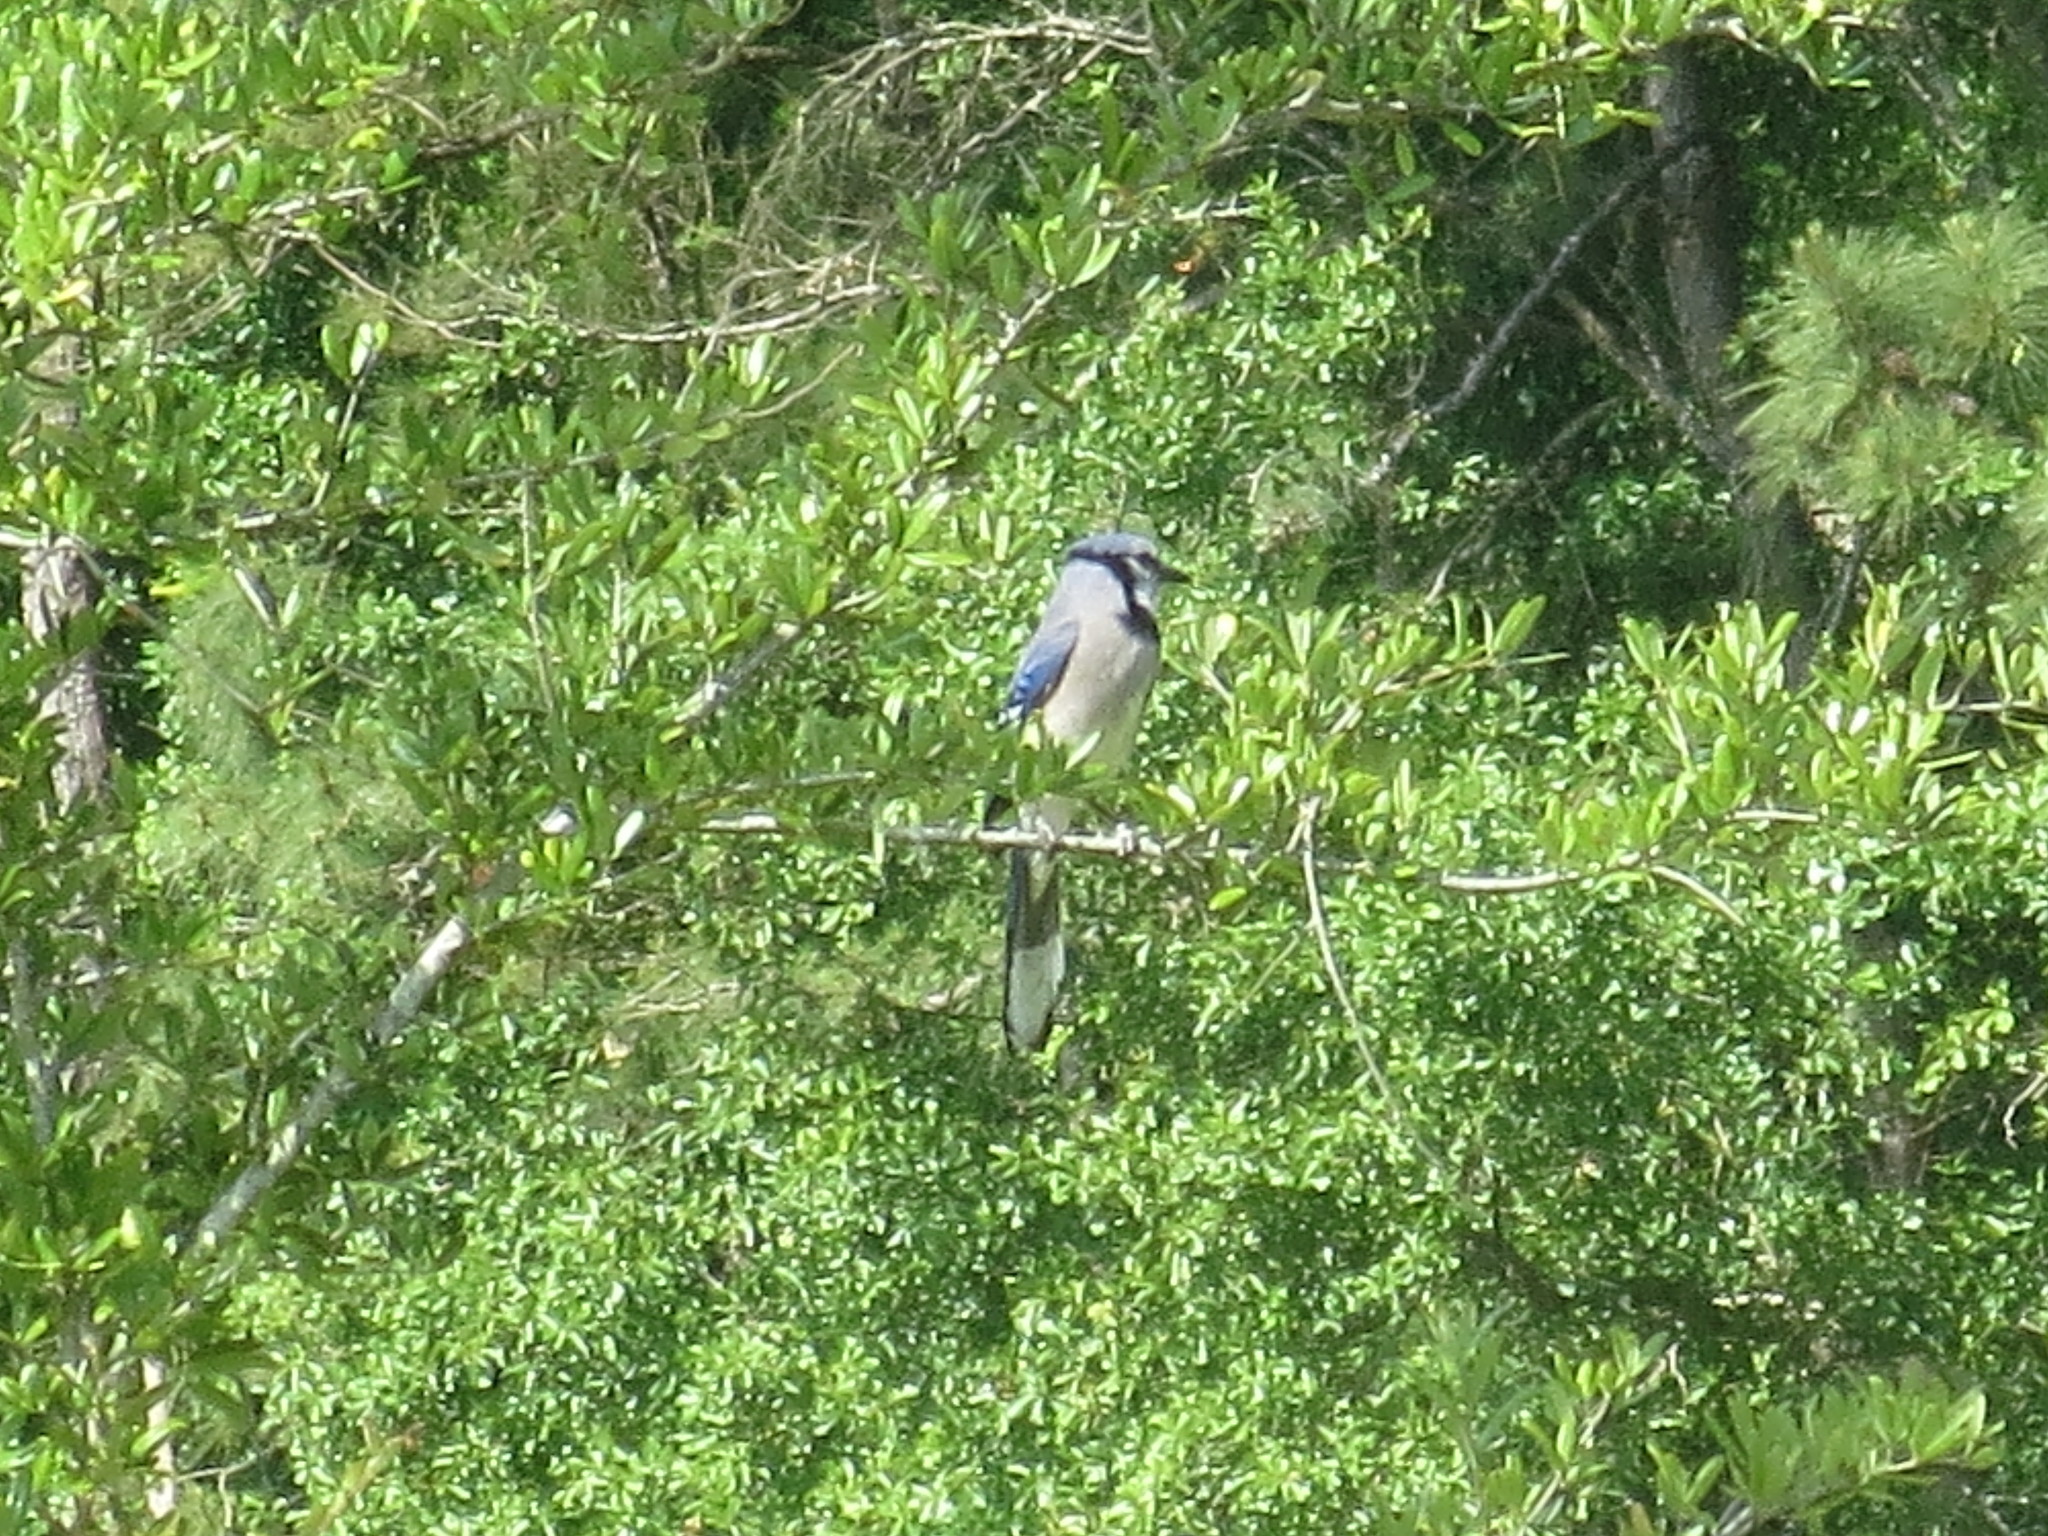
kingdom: Animalia
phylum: Chordata
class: Aves
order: Passeriformes
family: Corvidae
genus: Cyanocitta
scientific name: Cyanocitta cristata
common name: Blue jay
